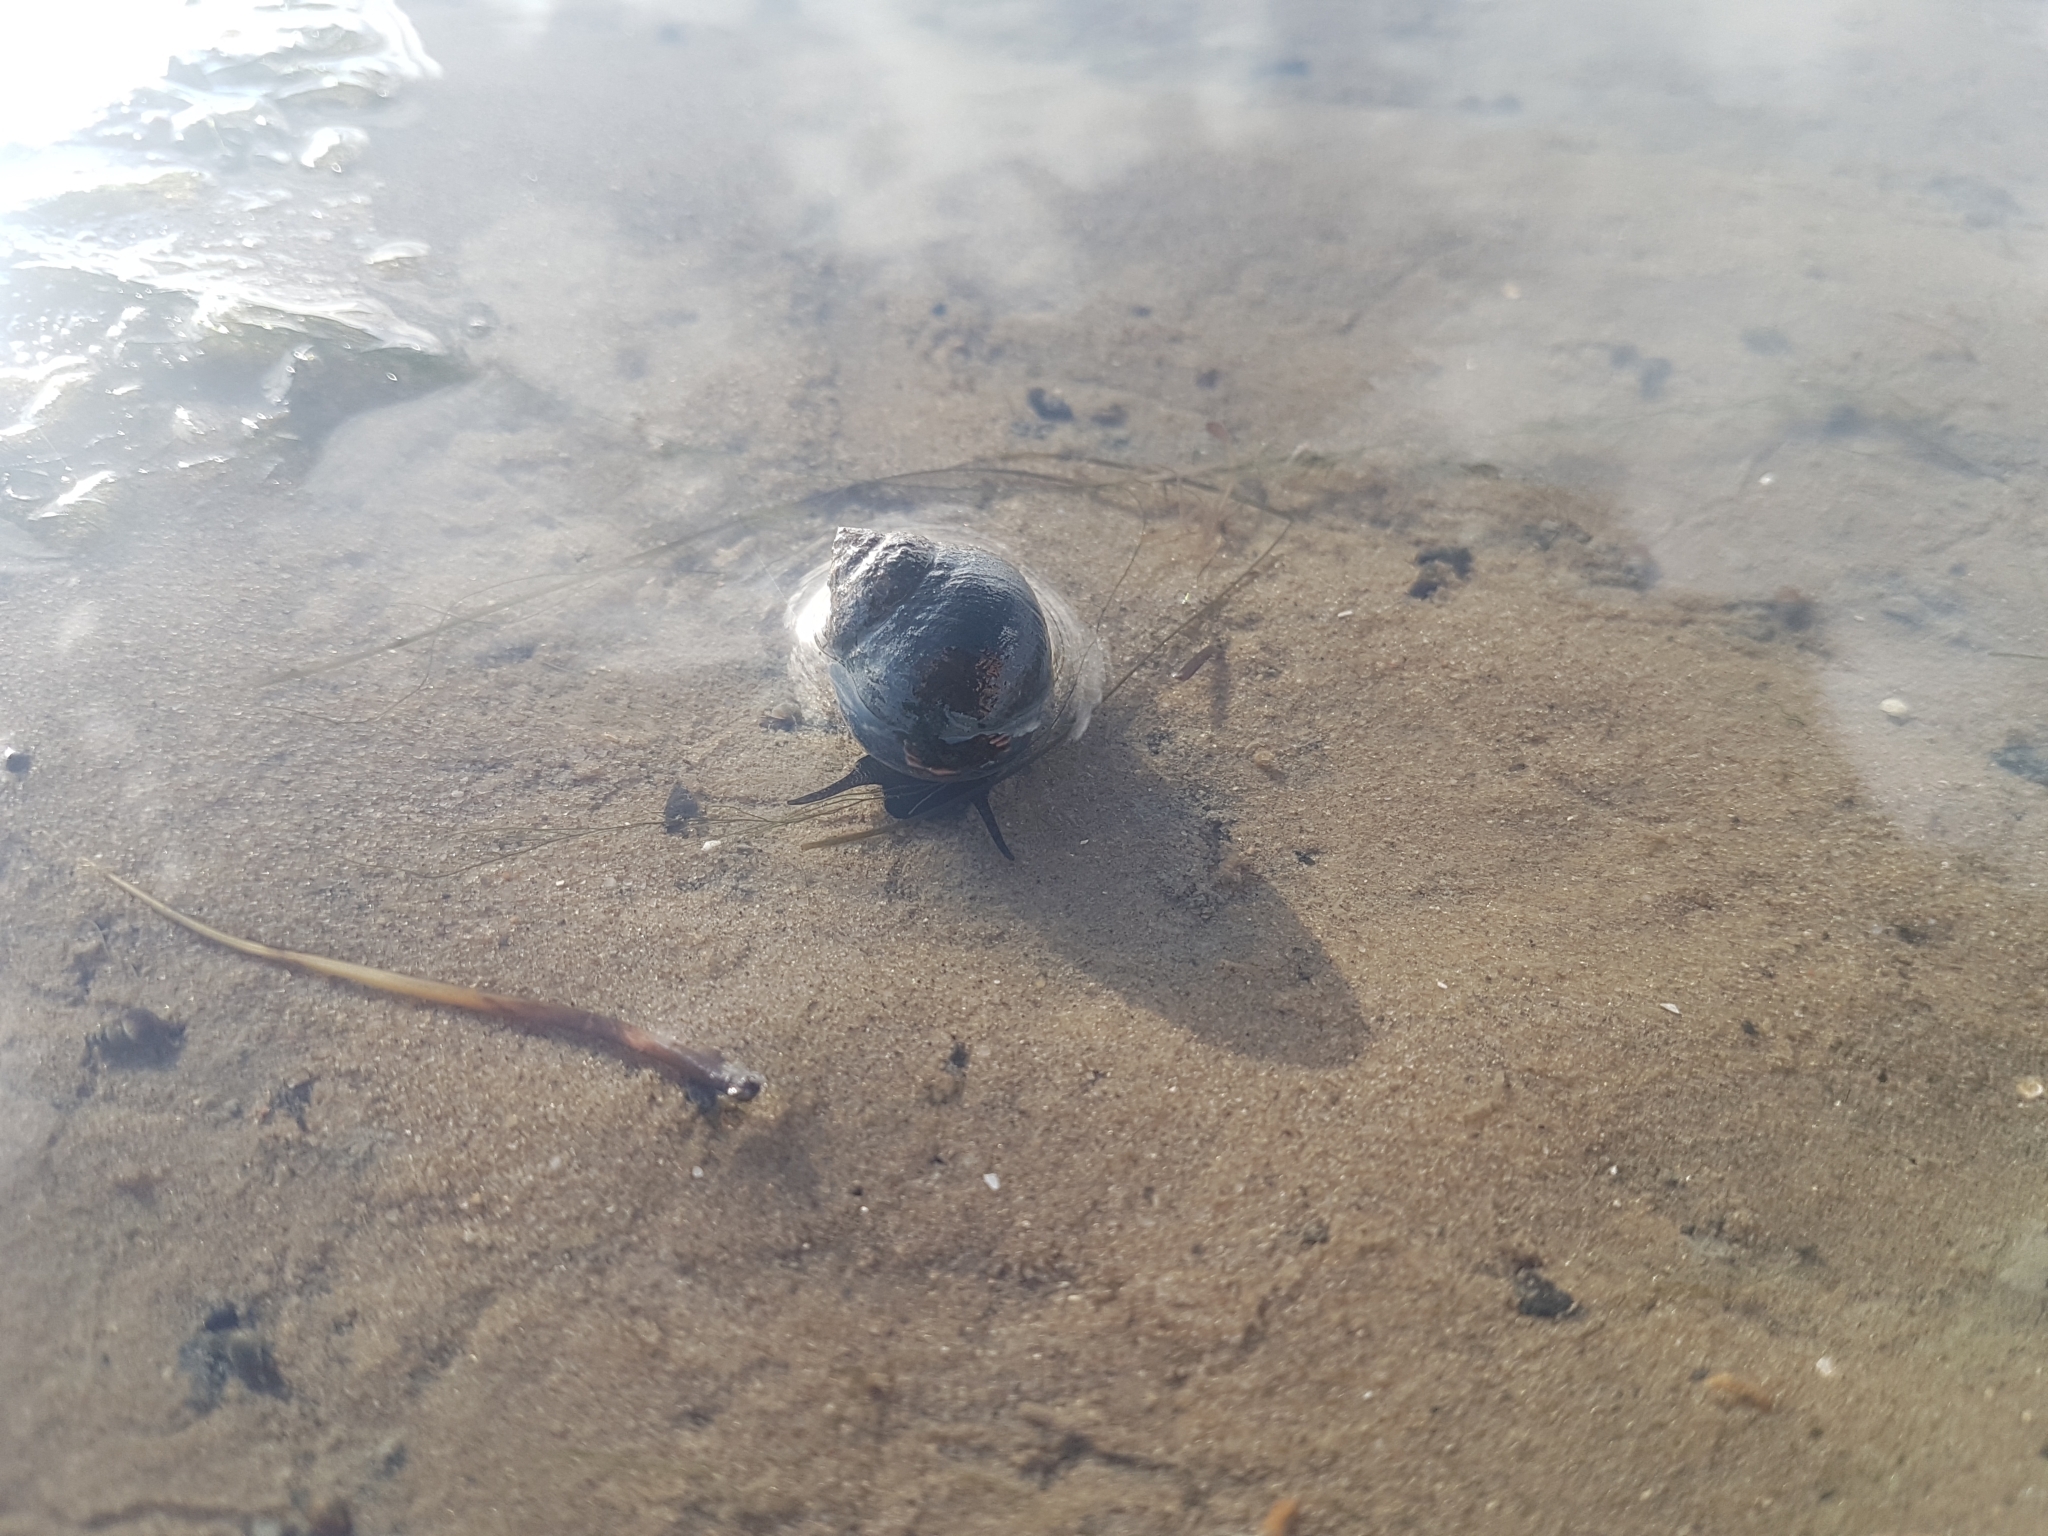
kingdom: Animalia
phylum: Mollusca
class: Gastropoda
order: Littorinimorpha
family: Littorinidae
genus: Littorina
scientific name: Littorina littorea
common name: Common periwinkle
